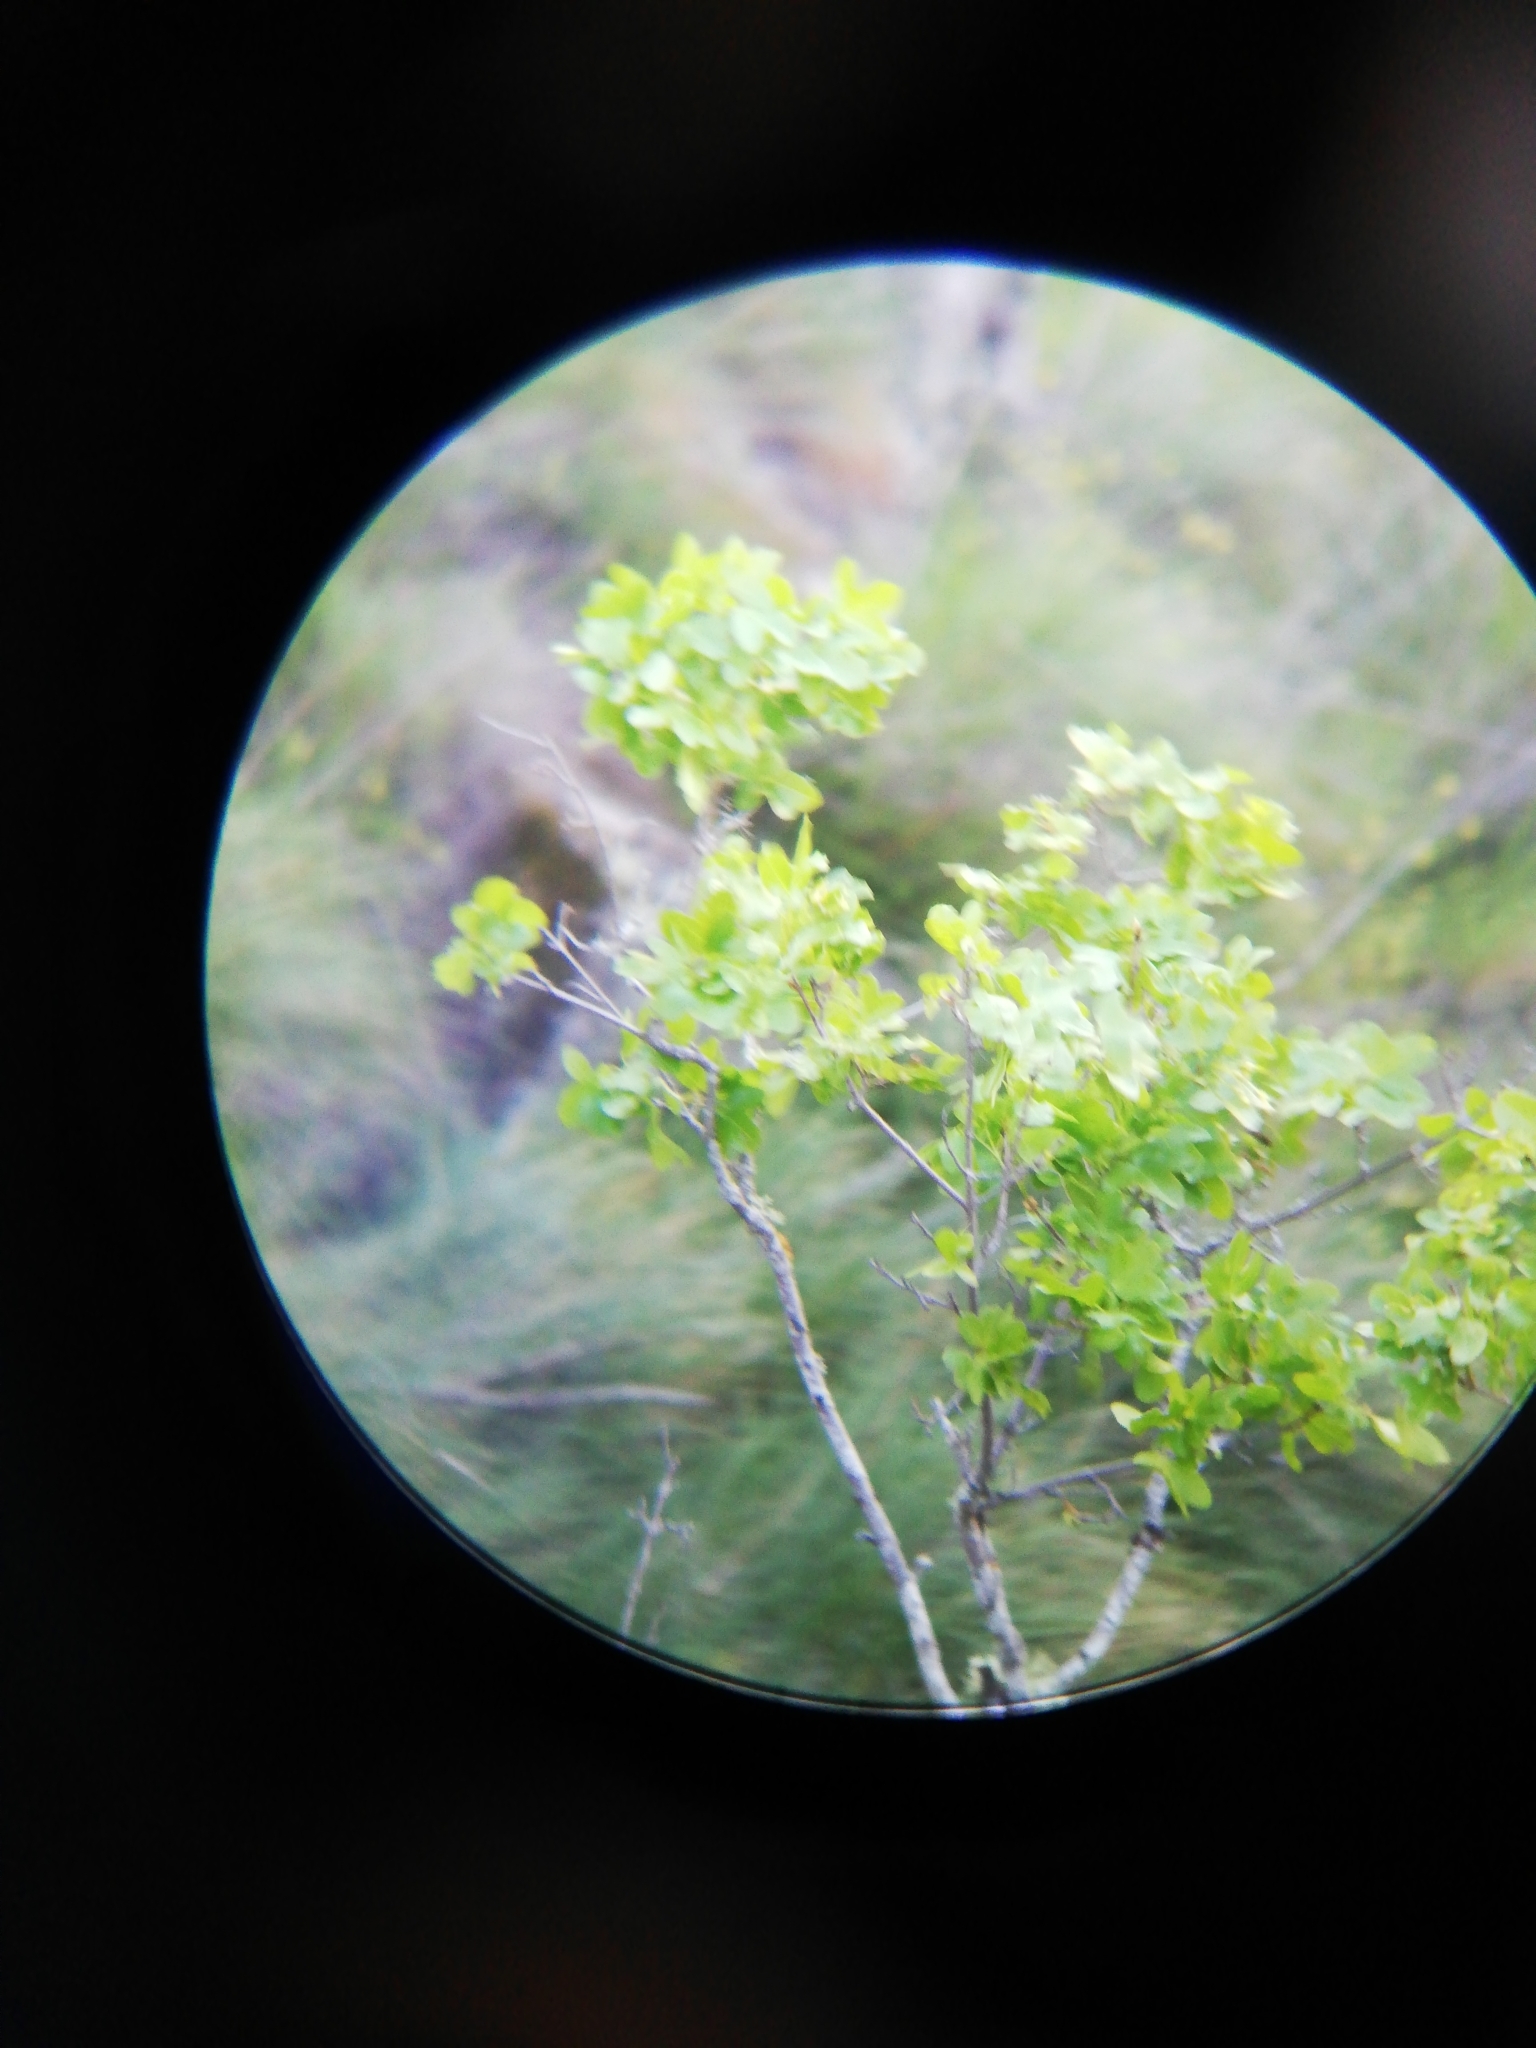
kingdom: Plantae
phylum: Tracheophyta
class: Magnoliopsida
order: Sapindales
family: Sapindaceae
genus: Acer
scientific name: Acer monspessulanum
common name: Montpellier maple
